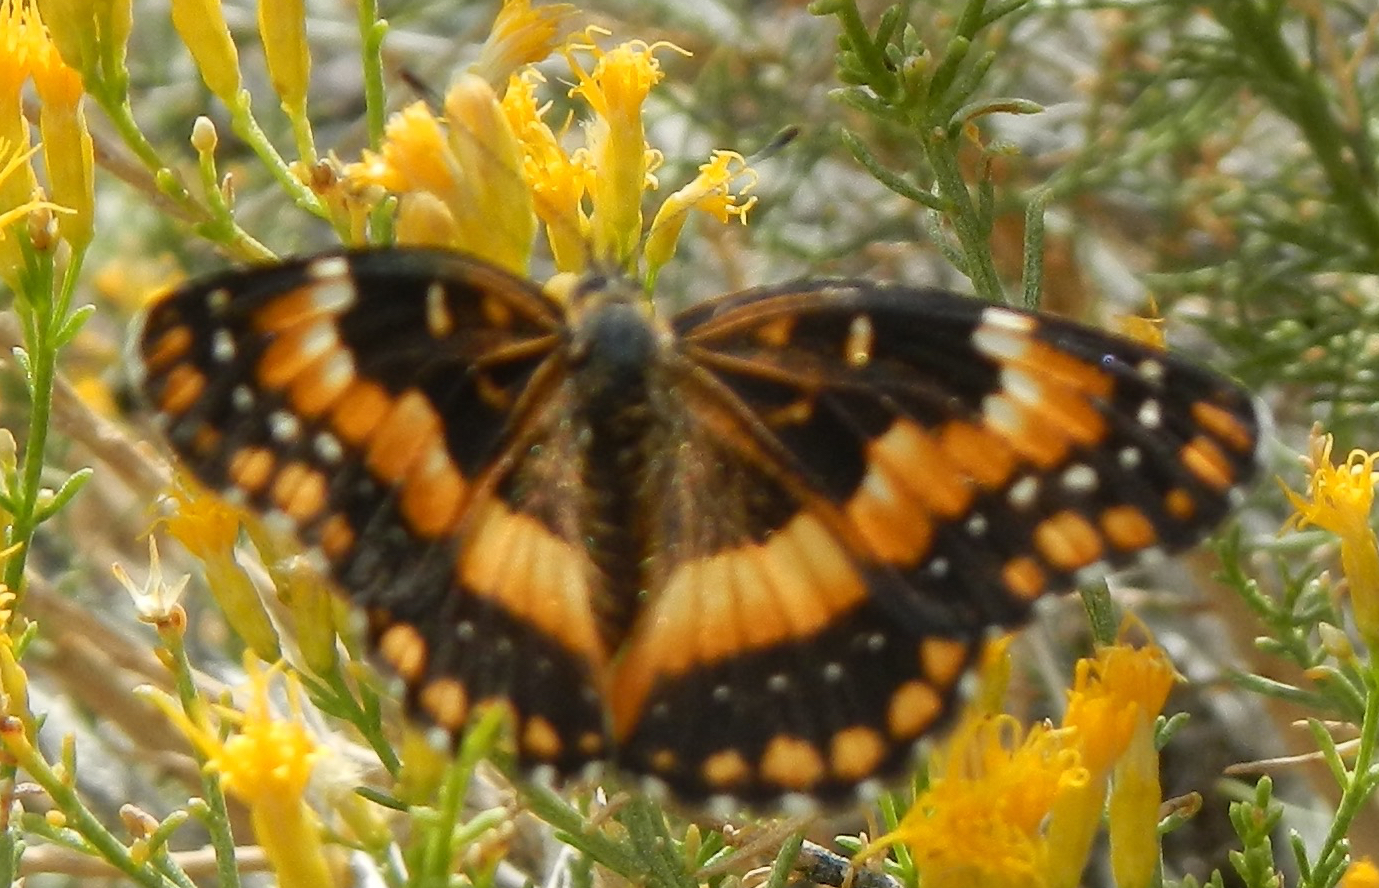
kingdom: Animalia
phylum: Arthropoda
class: Insecta
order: Lepidoptera
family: Nymphalidae
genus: Chlosyne
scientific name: Chlosyne californica
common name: California patch
